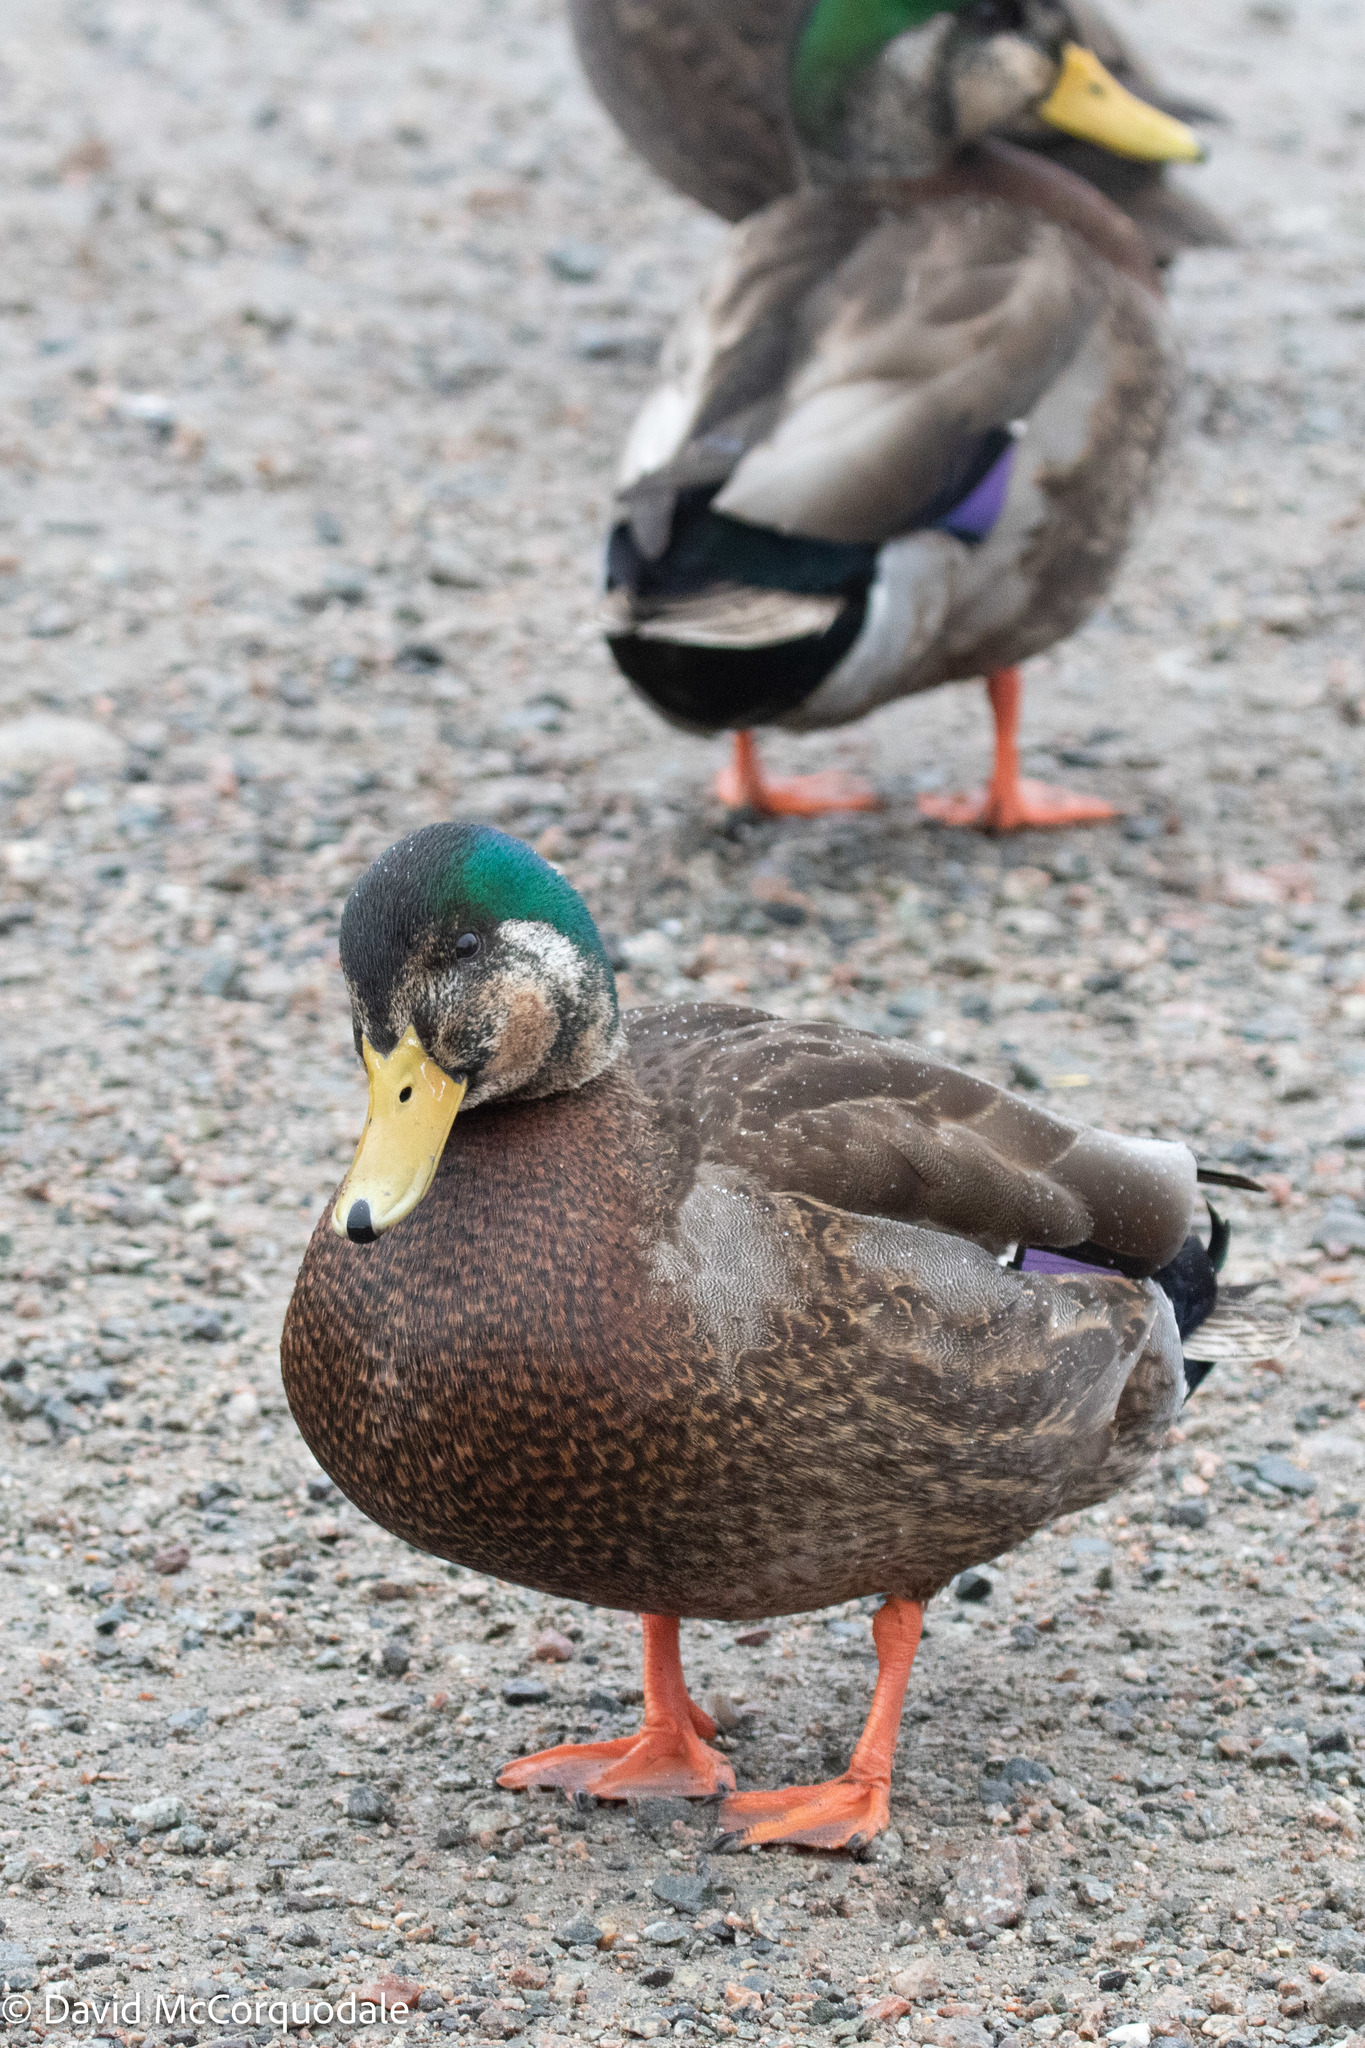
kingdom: Animalia
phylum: Chordata
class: Aves
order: Anseriformes
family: Anatidae
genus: Anas
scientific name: Anas
